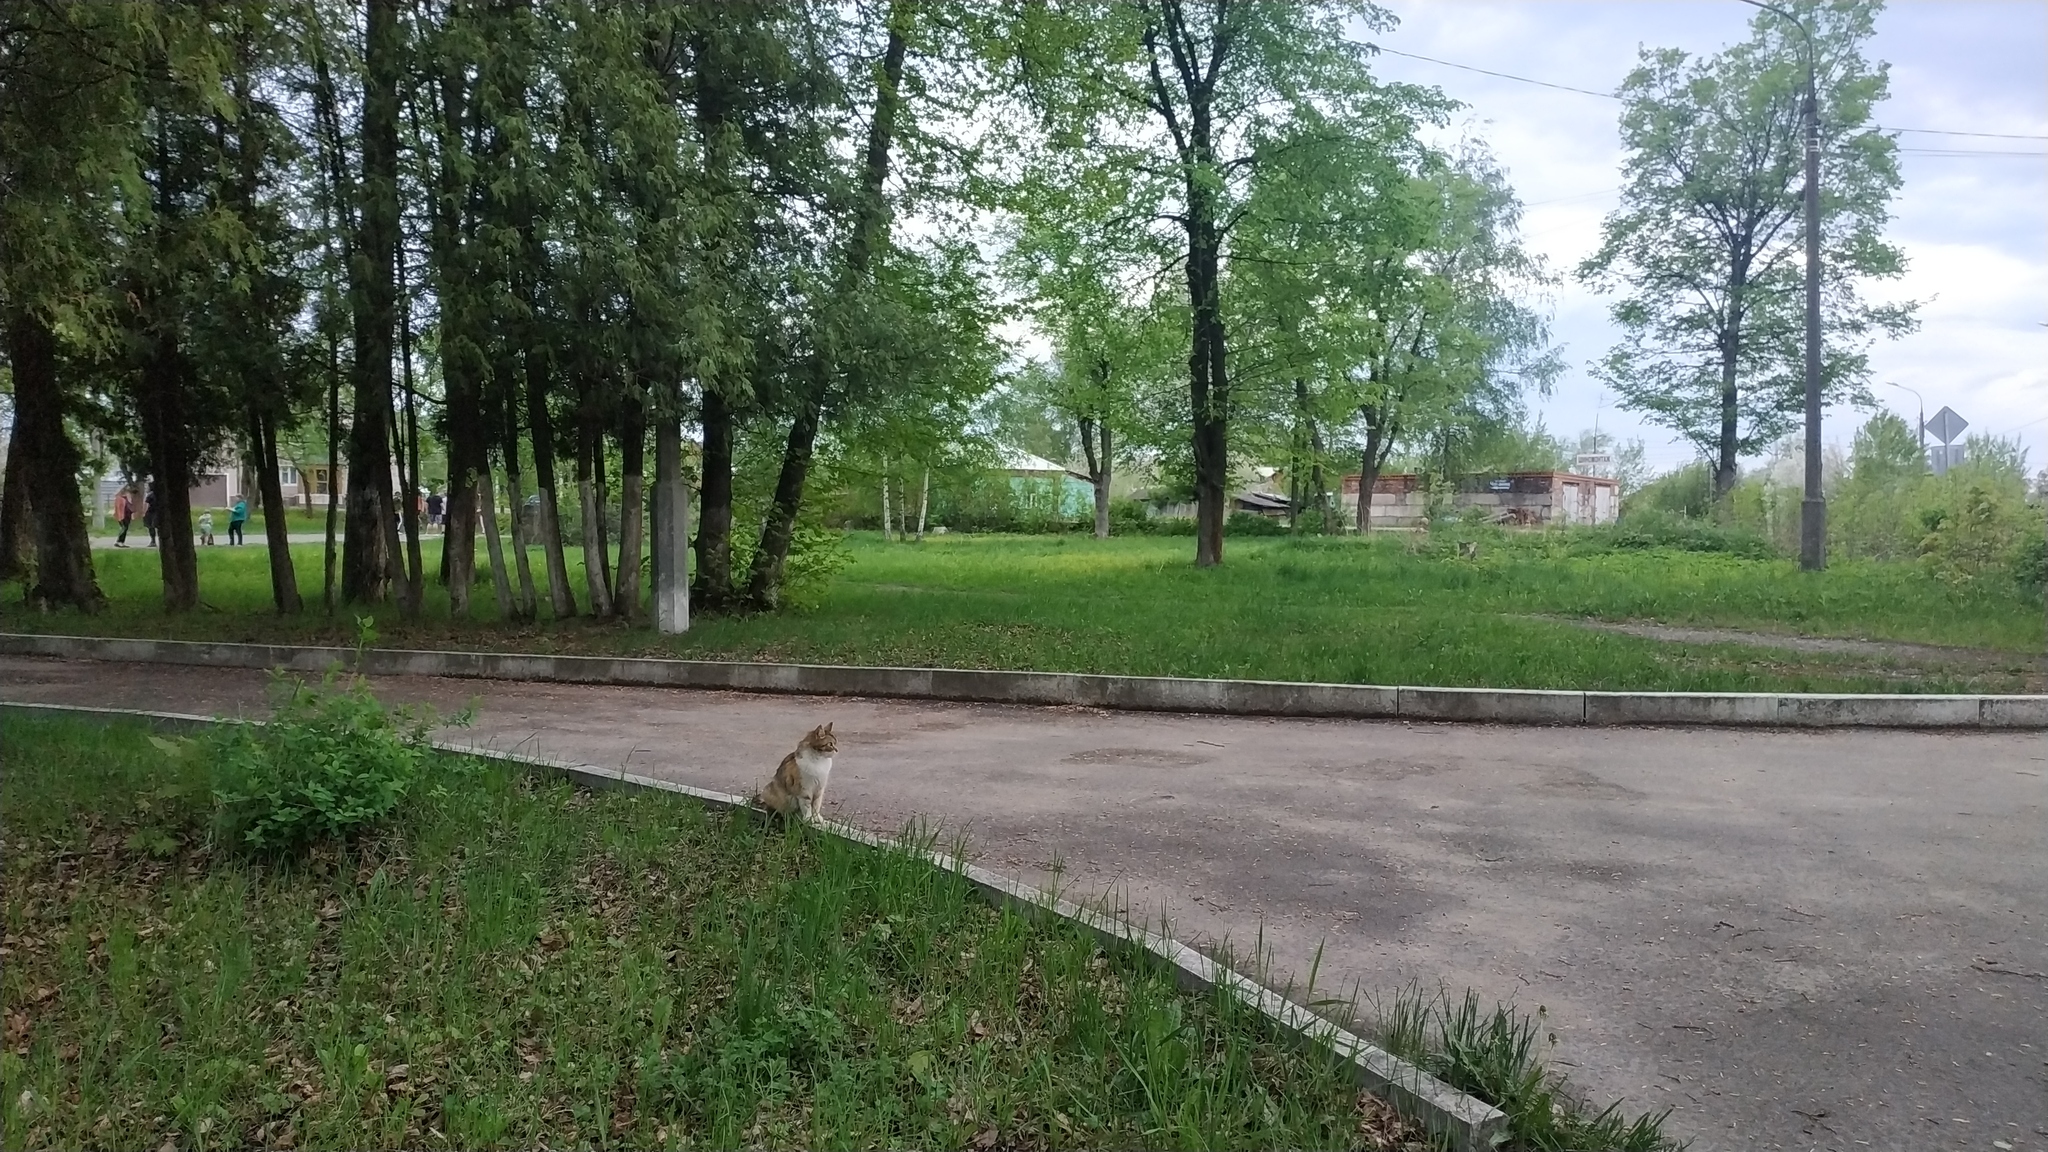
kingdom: Animalia
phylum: Chordata
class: Mammalia
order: Carnivora
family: Felidae
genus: Felis
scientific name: Felis catus
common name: Domestic cat
